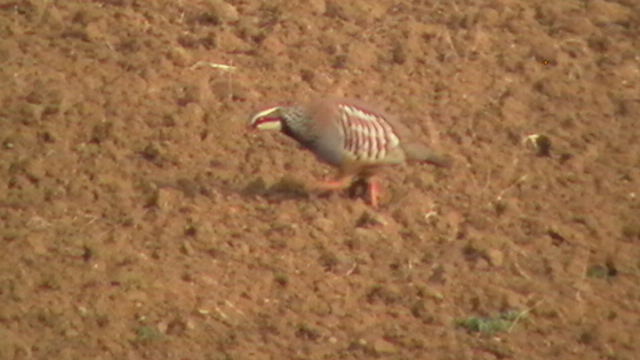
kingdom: Animalia
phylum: Chordata
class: Aves
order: Galliformes
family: Phasianidae
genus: Alectoris
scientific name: Alectoris rufa
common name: Red-legged partridge
